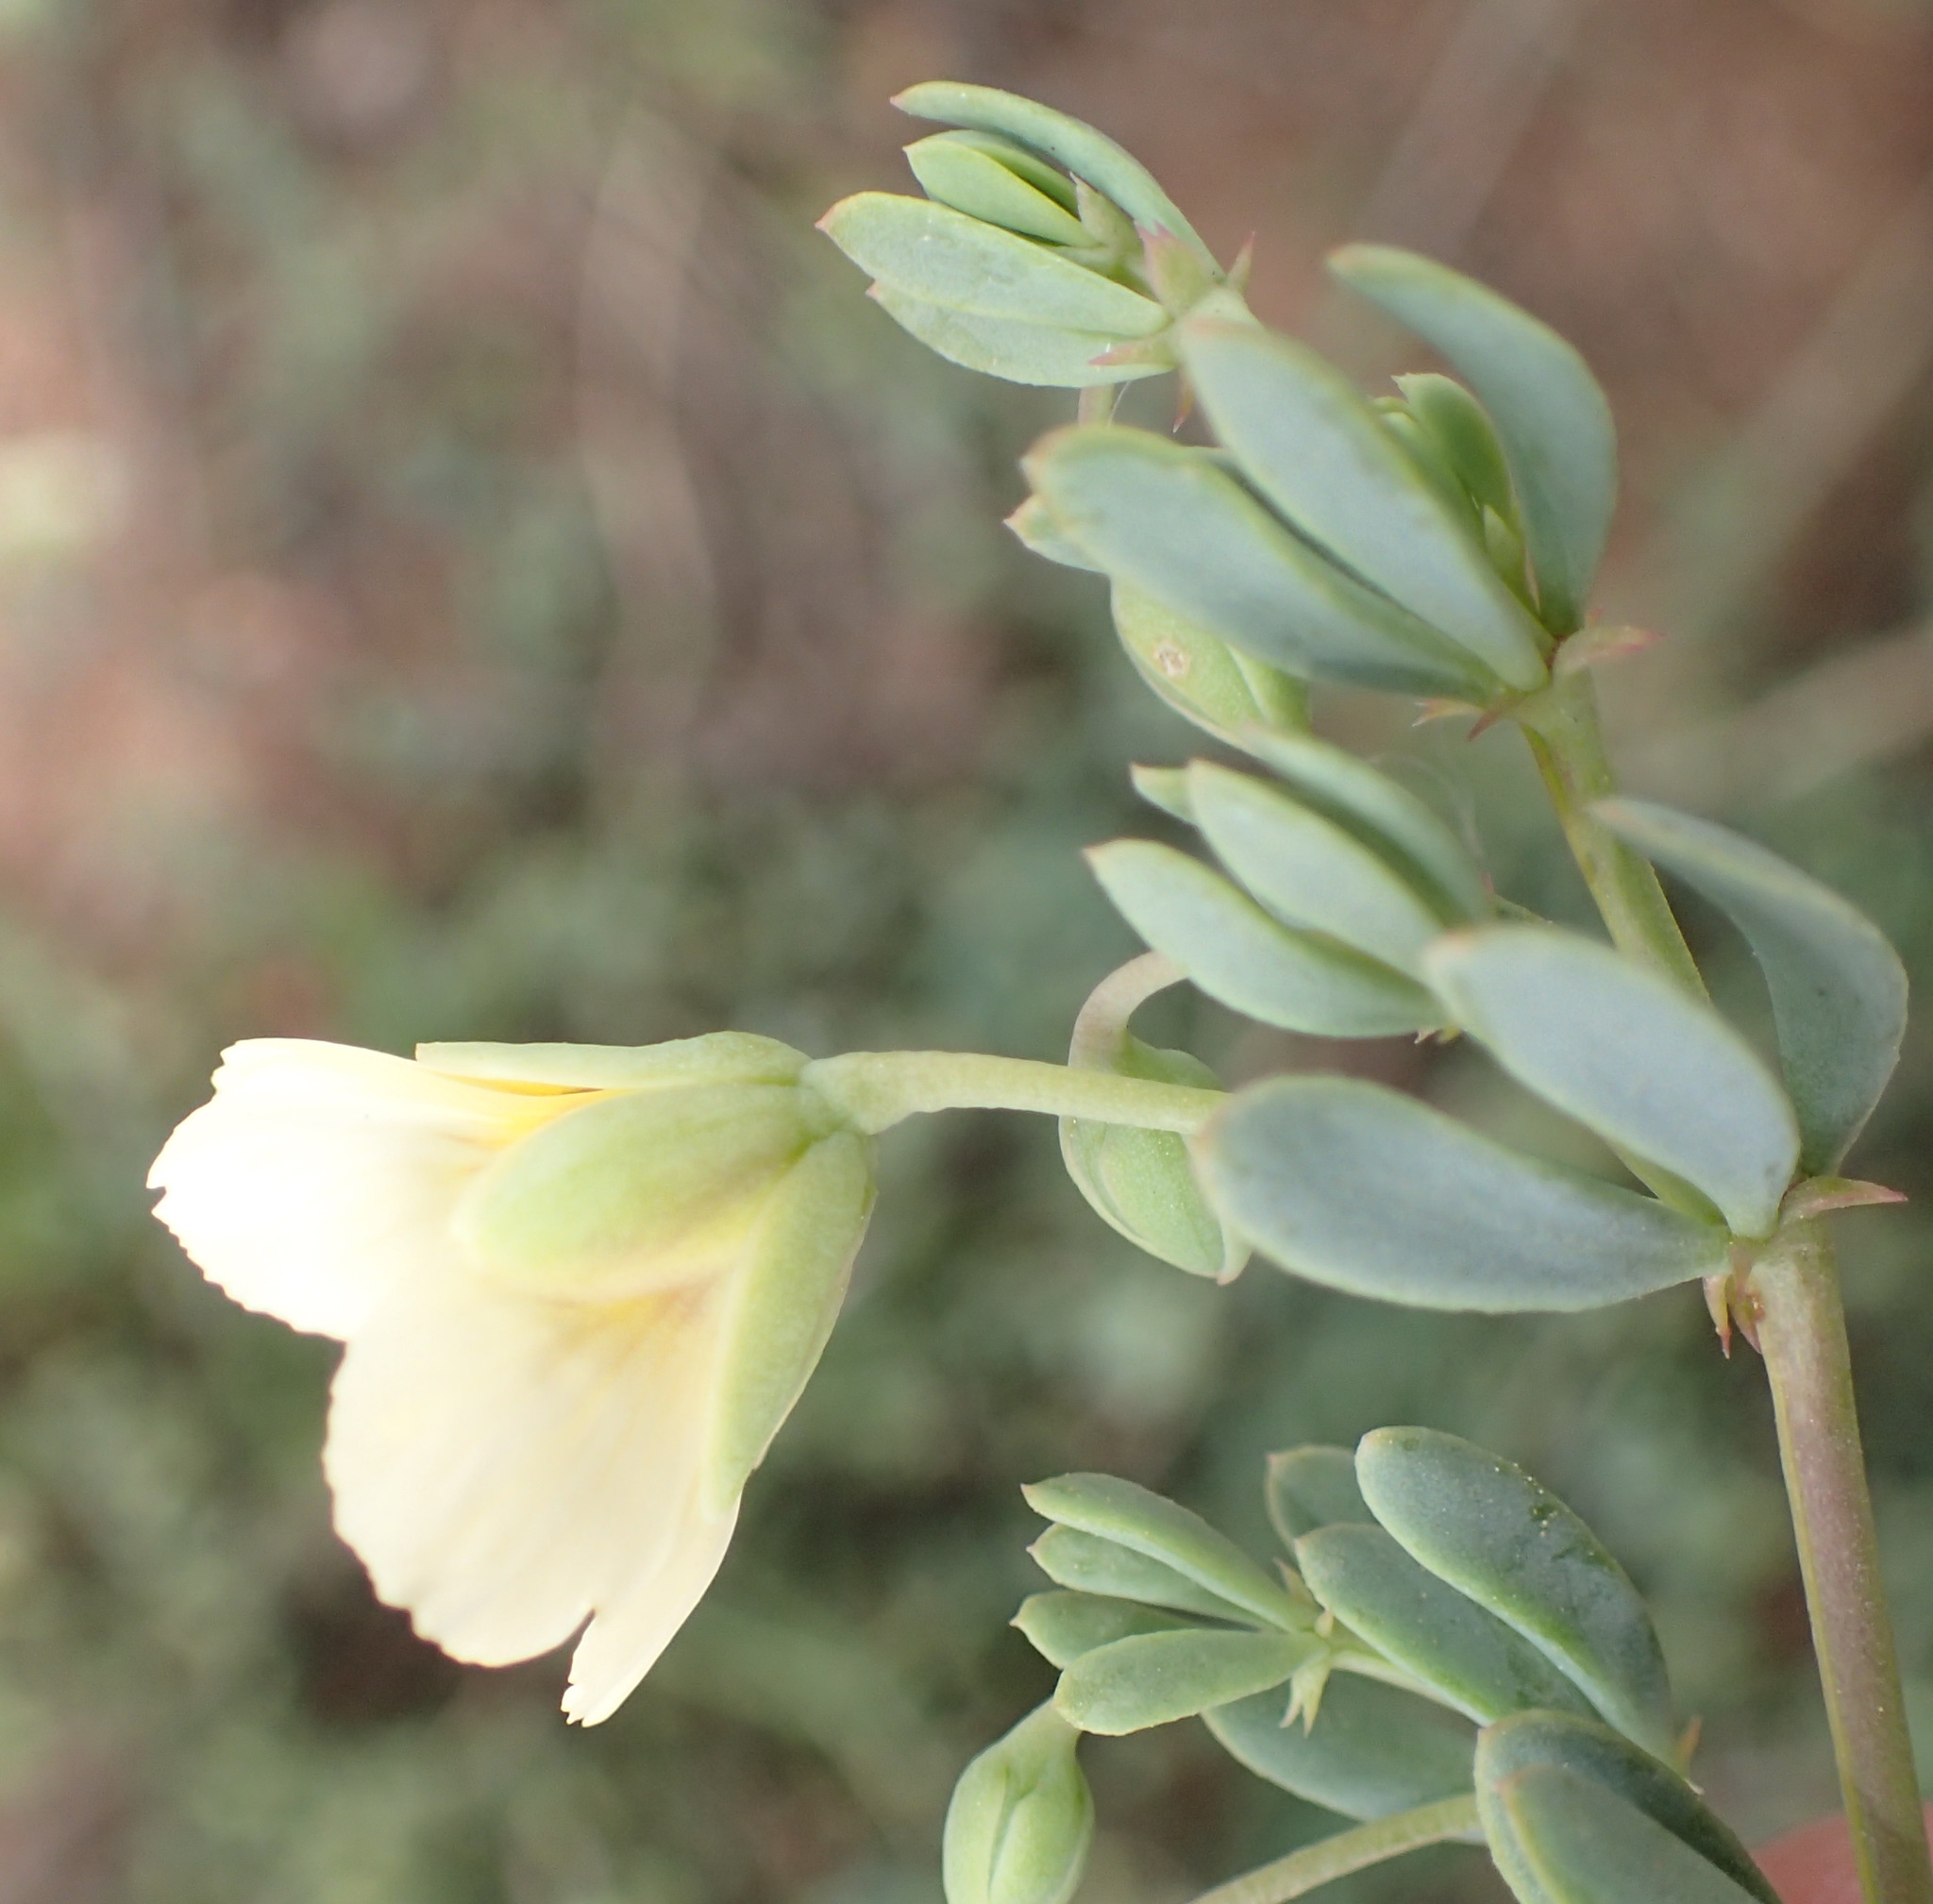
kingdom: Plantae
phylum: Tracheophyta
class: Magnoliopsida
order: Zygophyllales
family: Zygophyllaceae
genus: Roepera
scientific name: Roepera fulva
